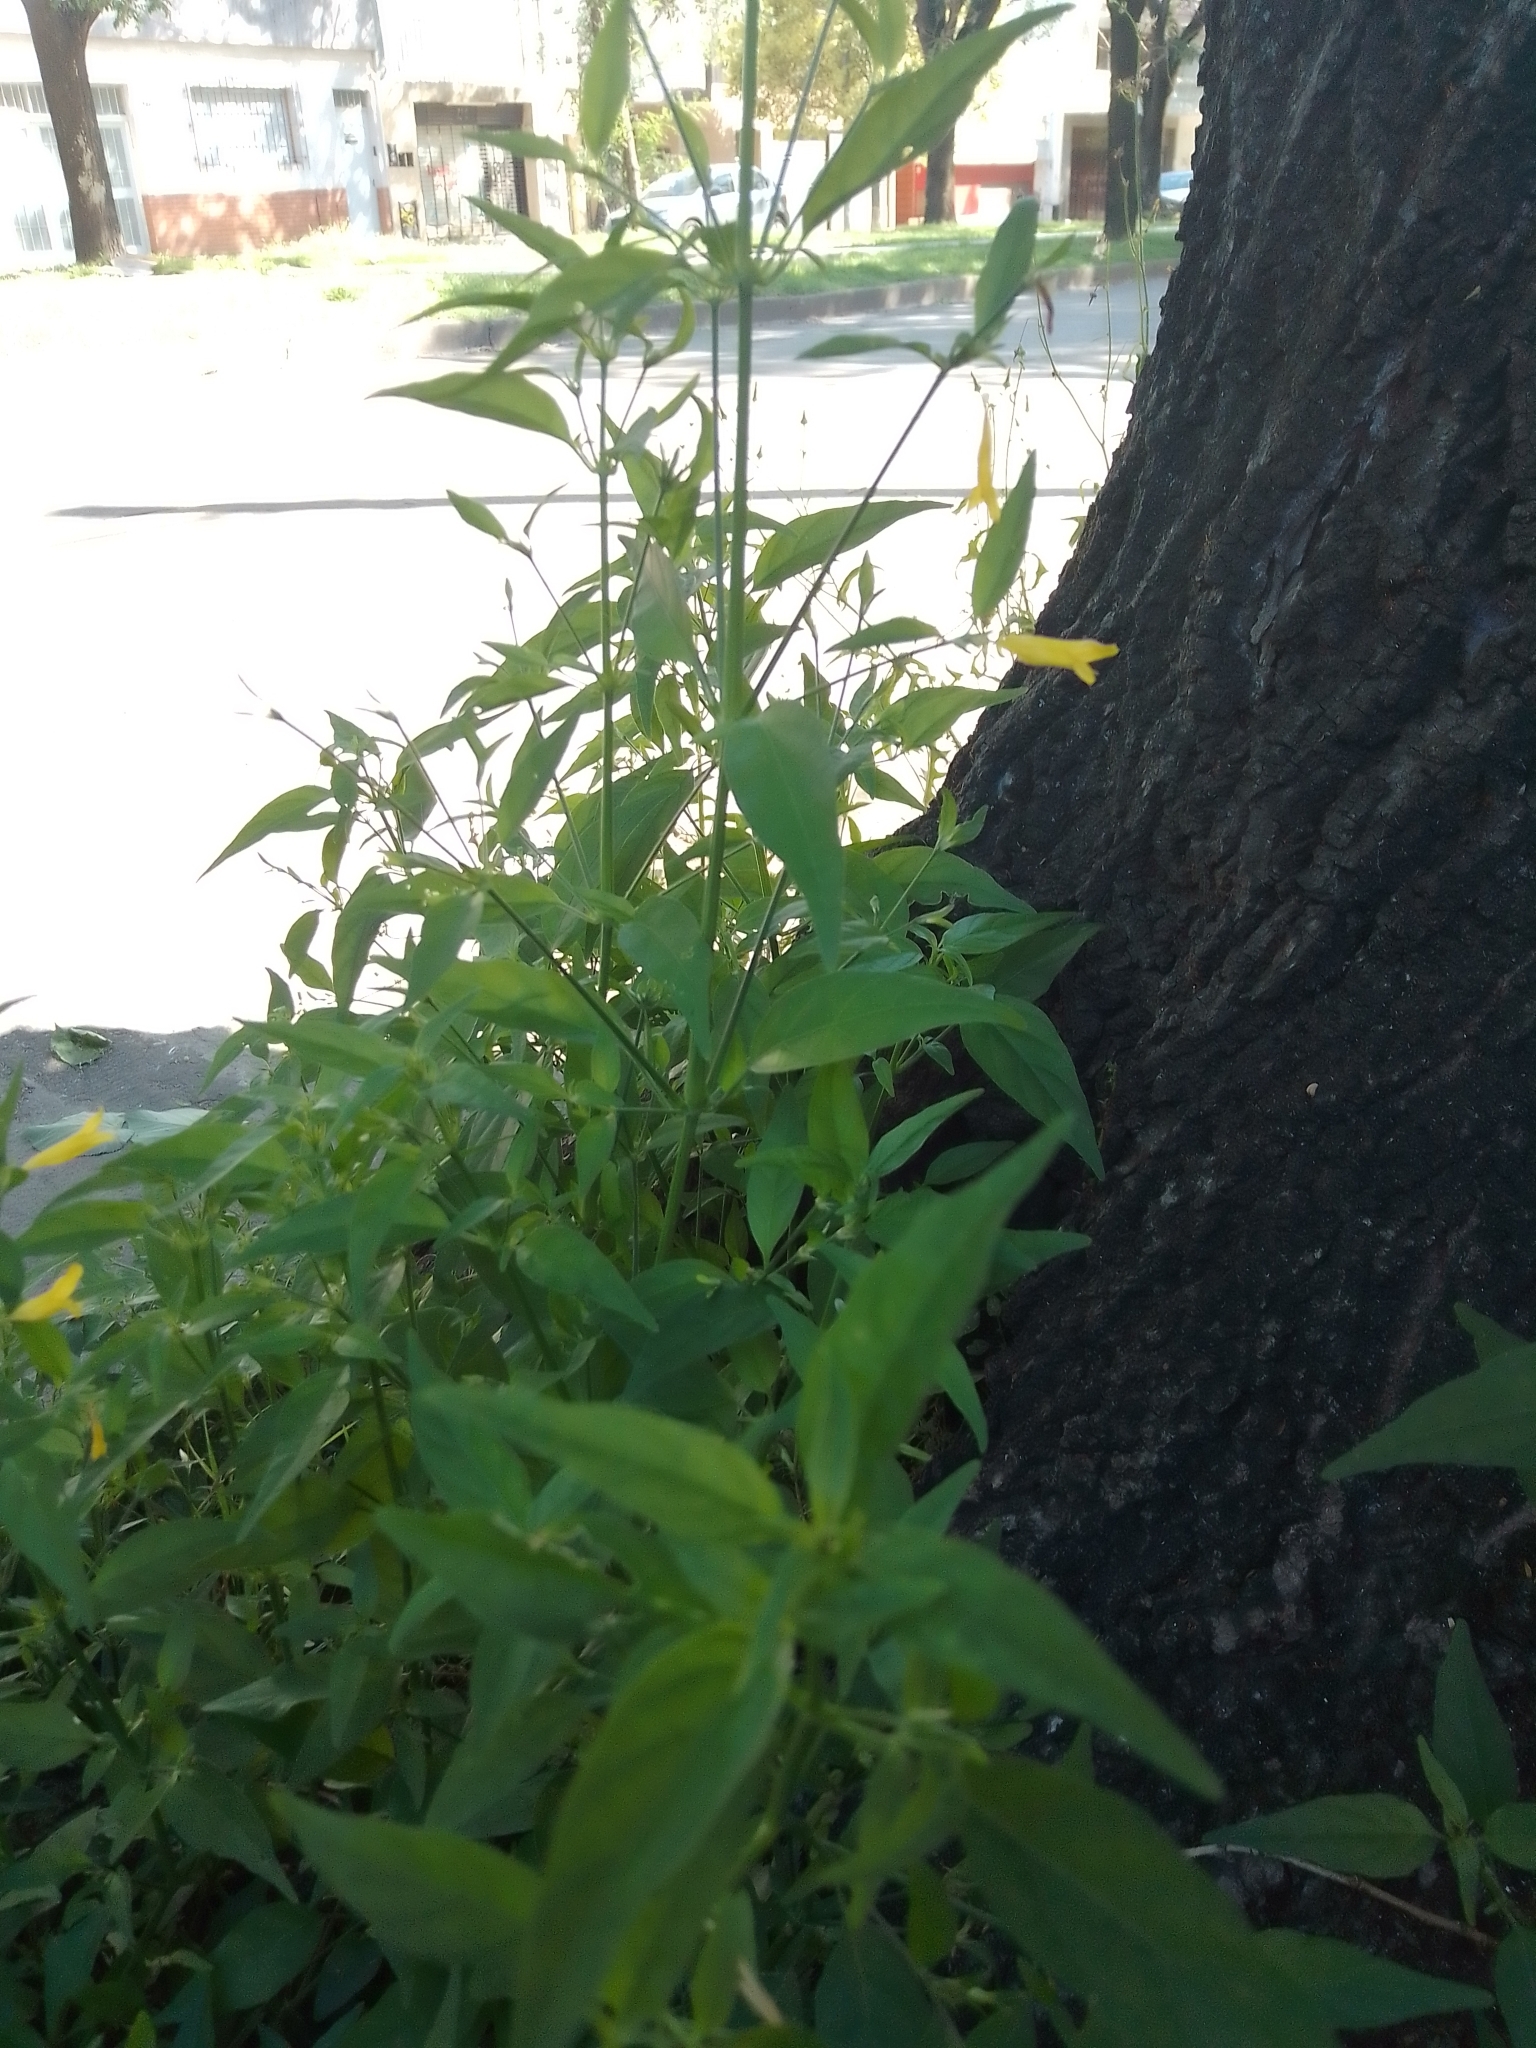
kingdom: Plantae
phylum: Tracheophyta
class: Magnoliopsida
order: Lamiales
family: Acanthaceae
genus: Dicliptera
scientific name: Dicliptera squarrosa
